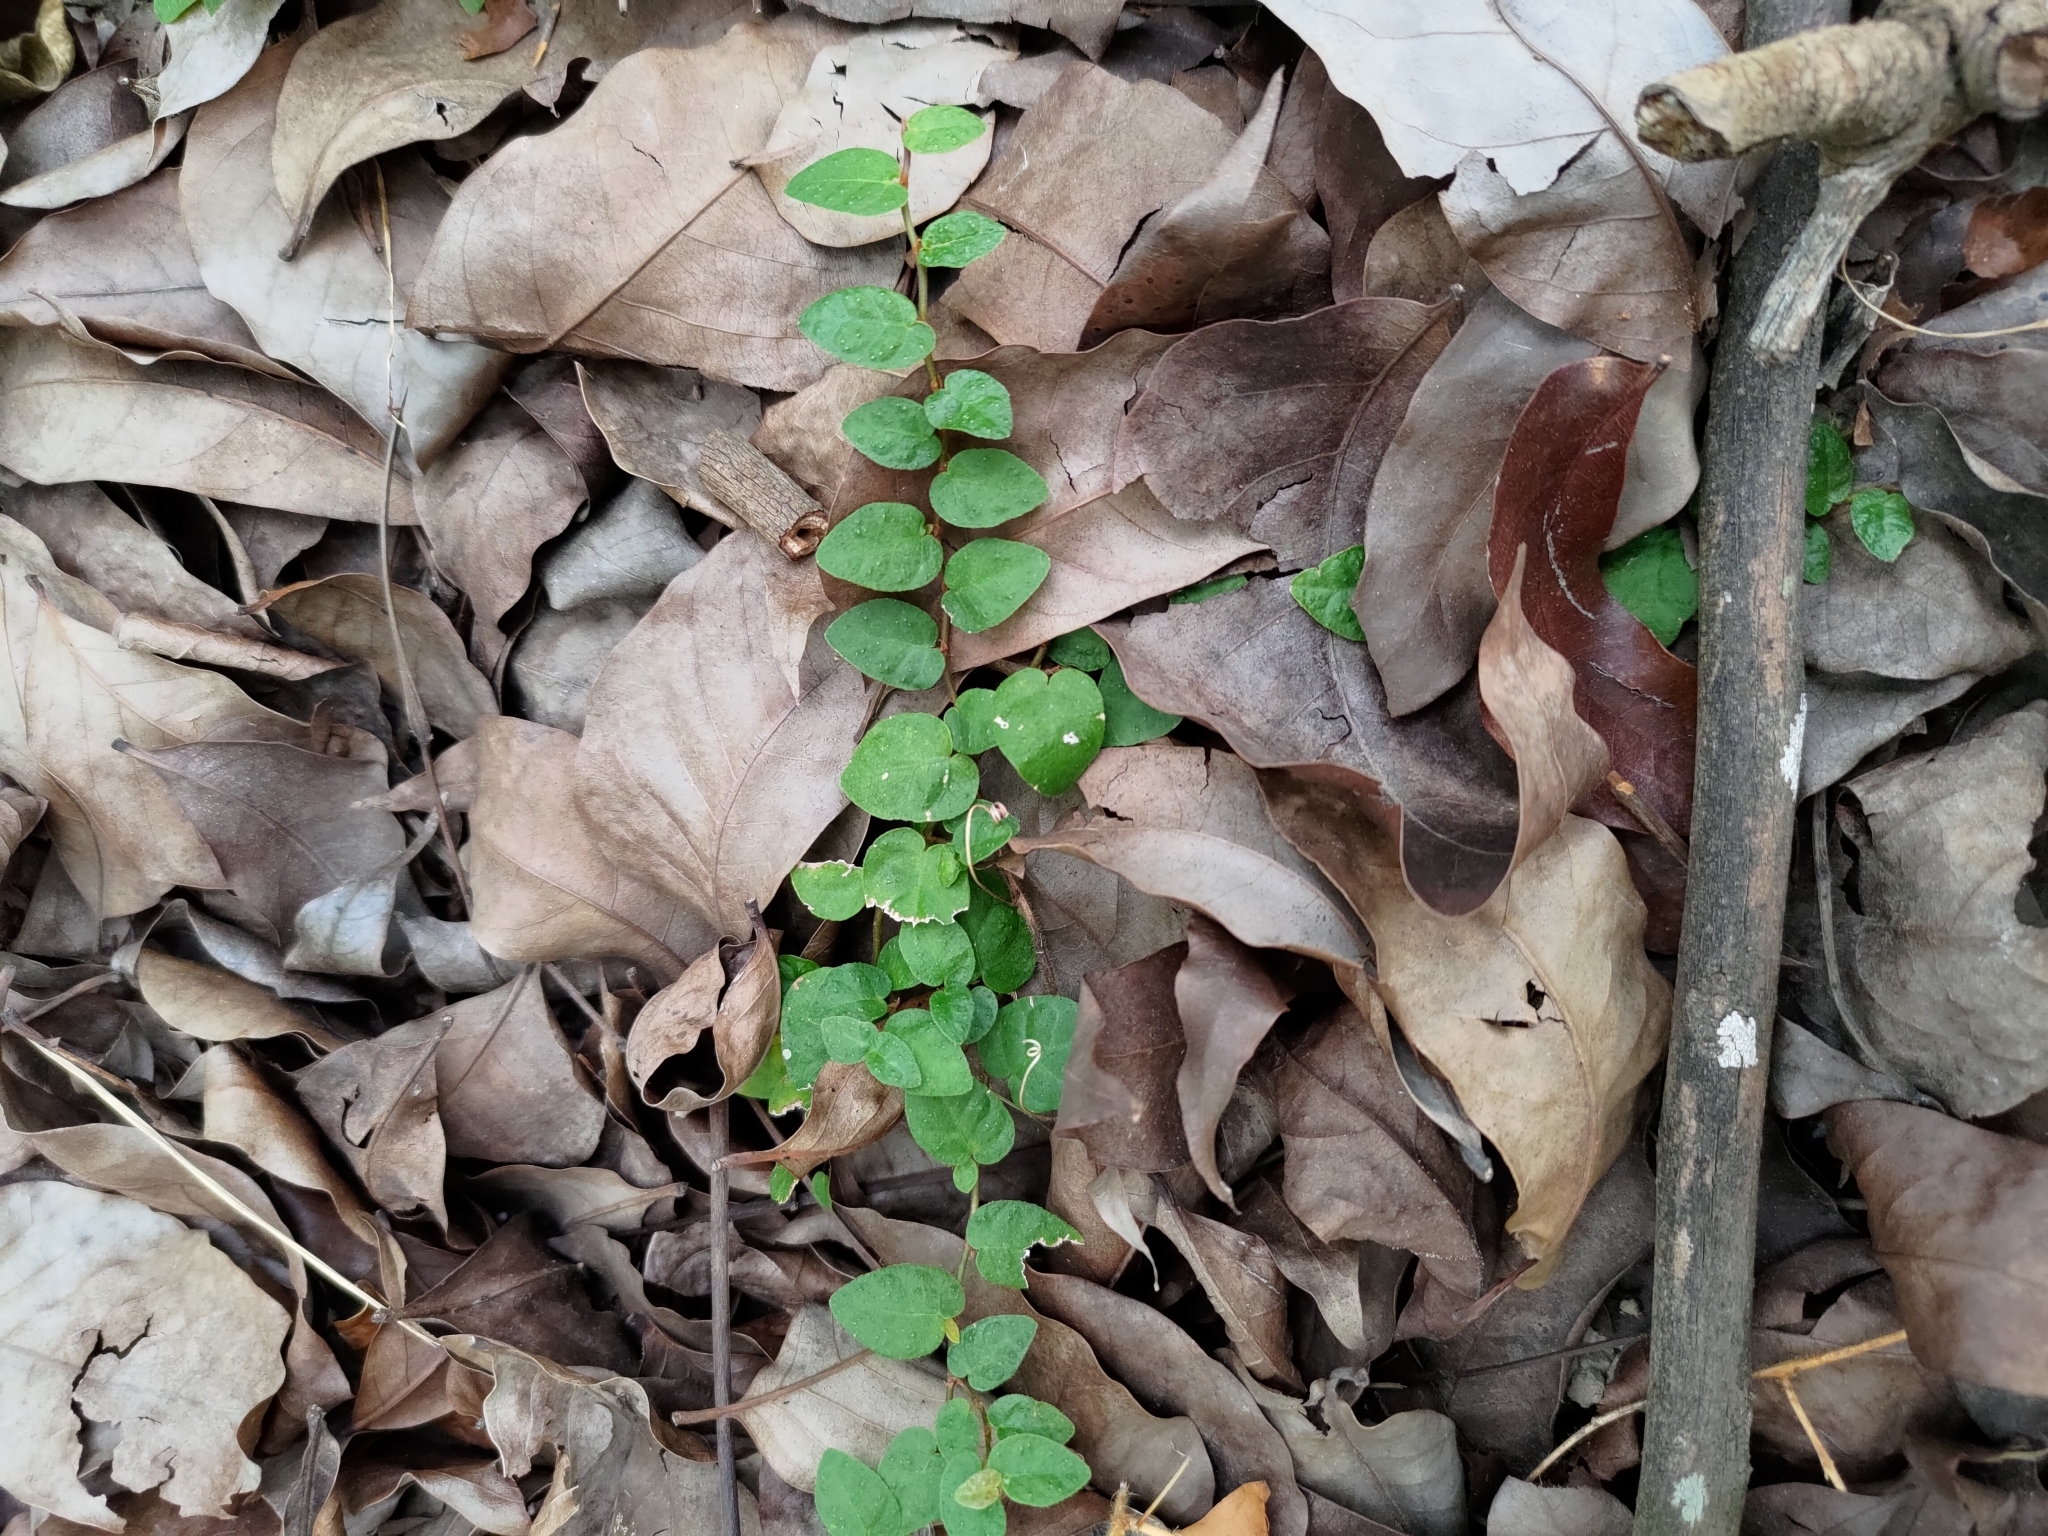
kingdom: Plantae
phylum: Tracheophyta
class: Magnoliopsida
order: Rosales
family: Moraceae
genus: Ficus
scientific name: Ficus pumila
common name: Climbingfig
